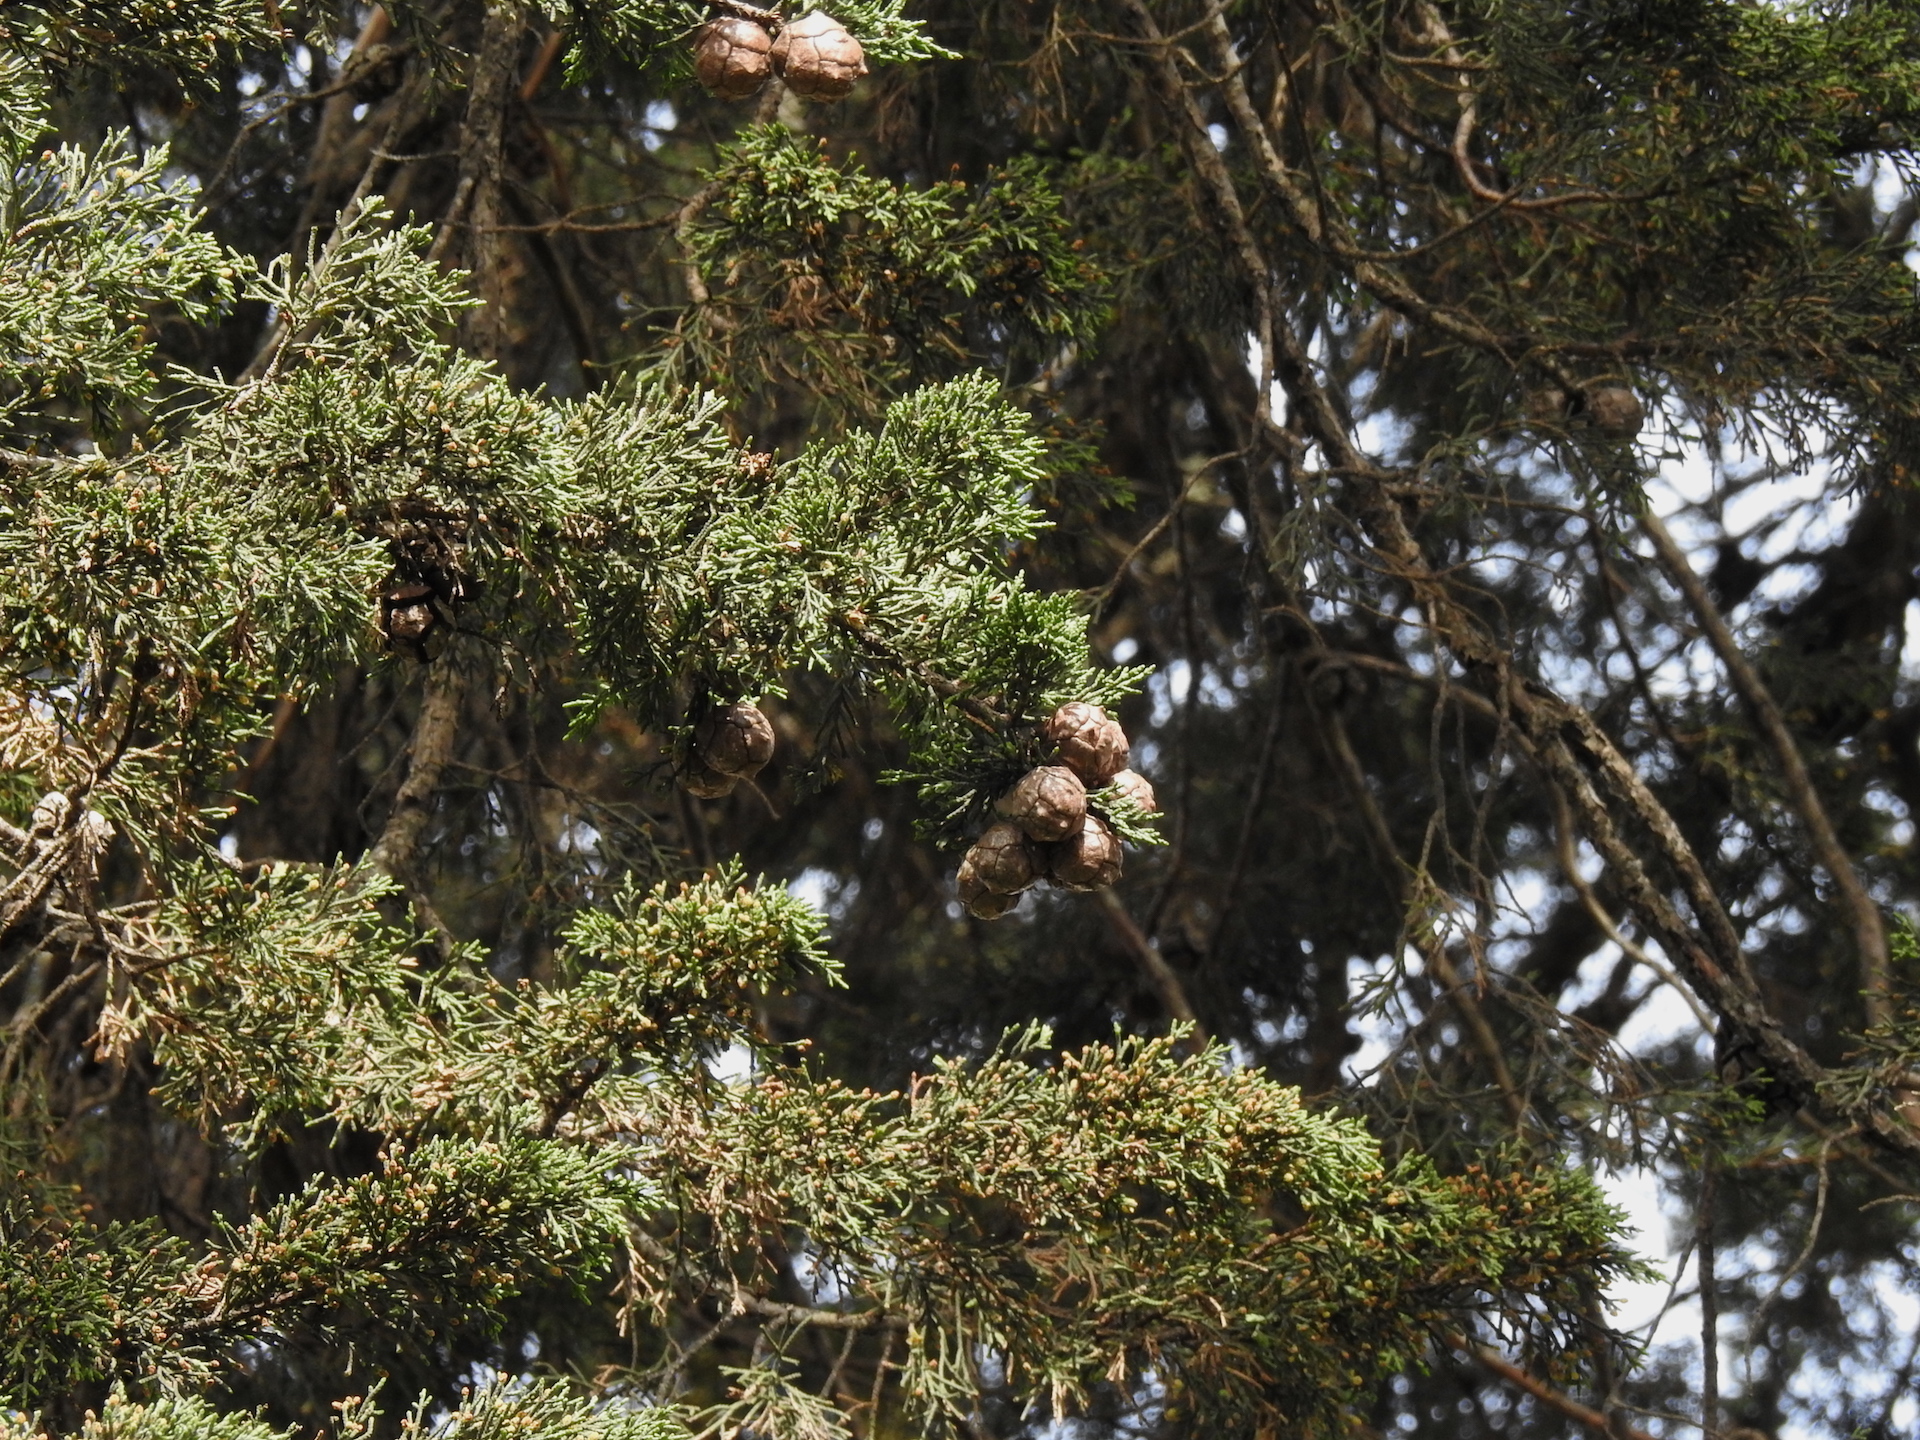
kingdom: Plantae
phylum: Tracheophyta
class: Pinopsida
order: Pinales
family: Cupressaceae
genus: Cupressus
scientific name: Cupressus macrocarpa
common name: Monterey cypress
